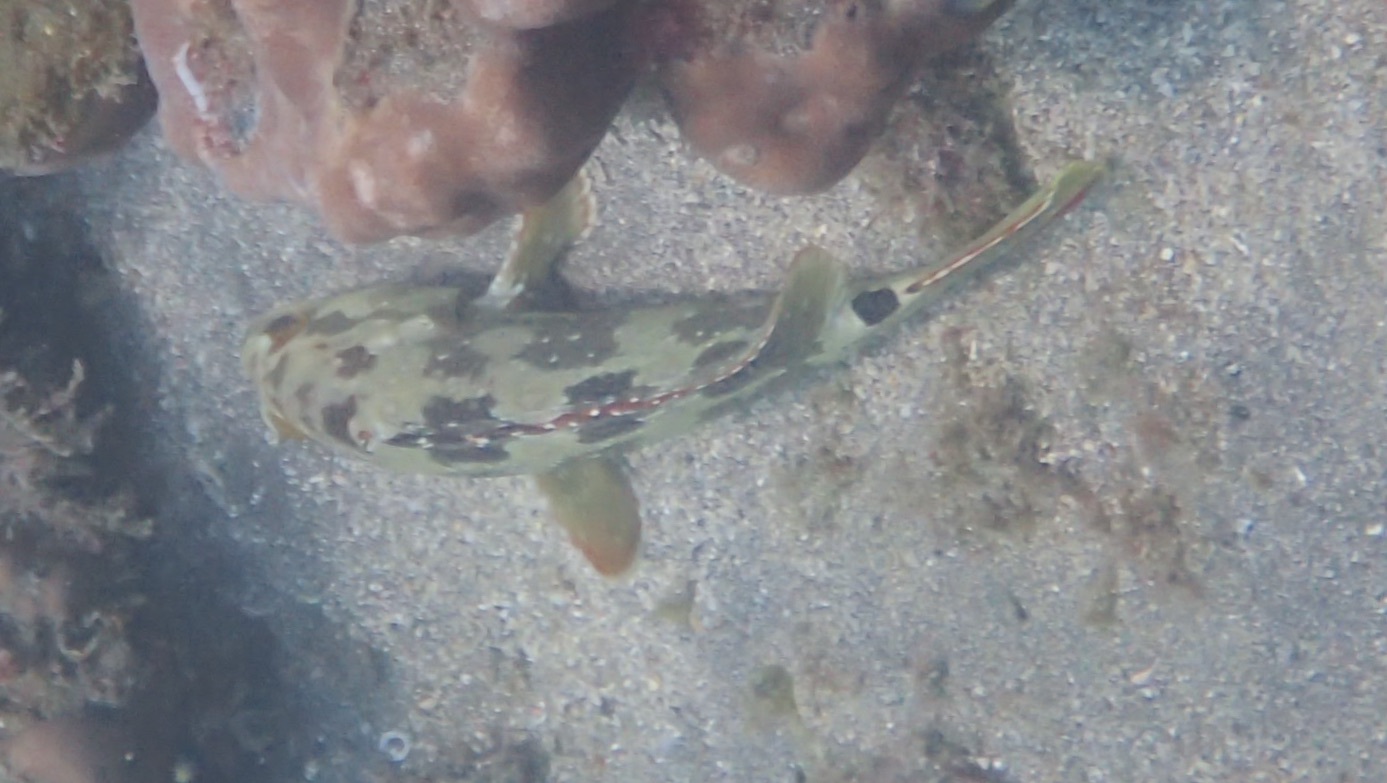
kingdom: Animalia
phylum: Chordata
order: Perciformes
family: Serranidae
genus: Epinephelus
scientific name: Epinephelus labriformis
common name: Flag cabrilla
